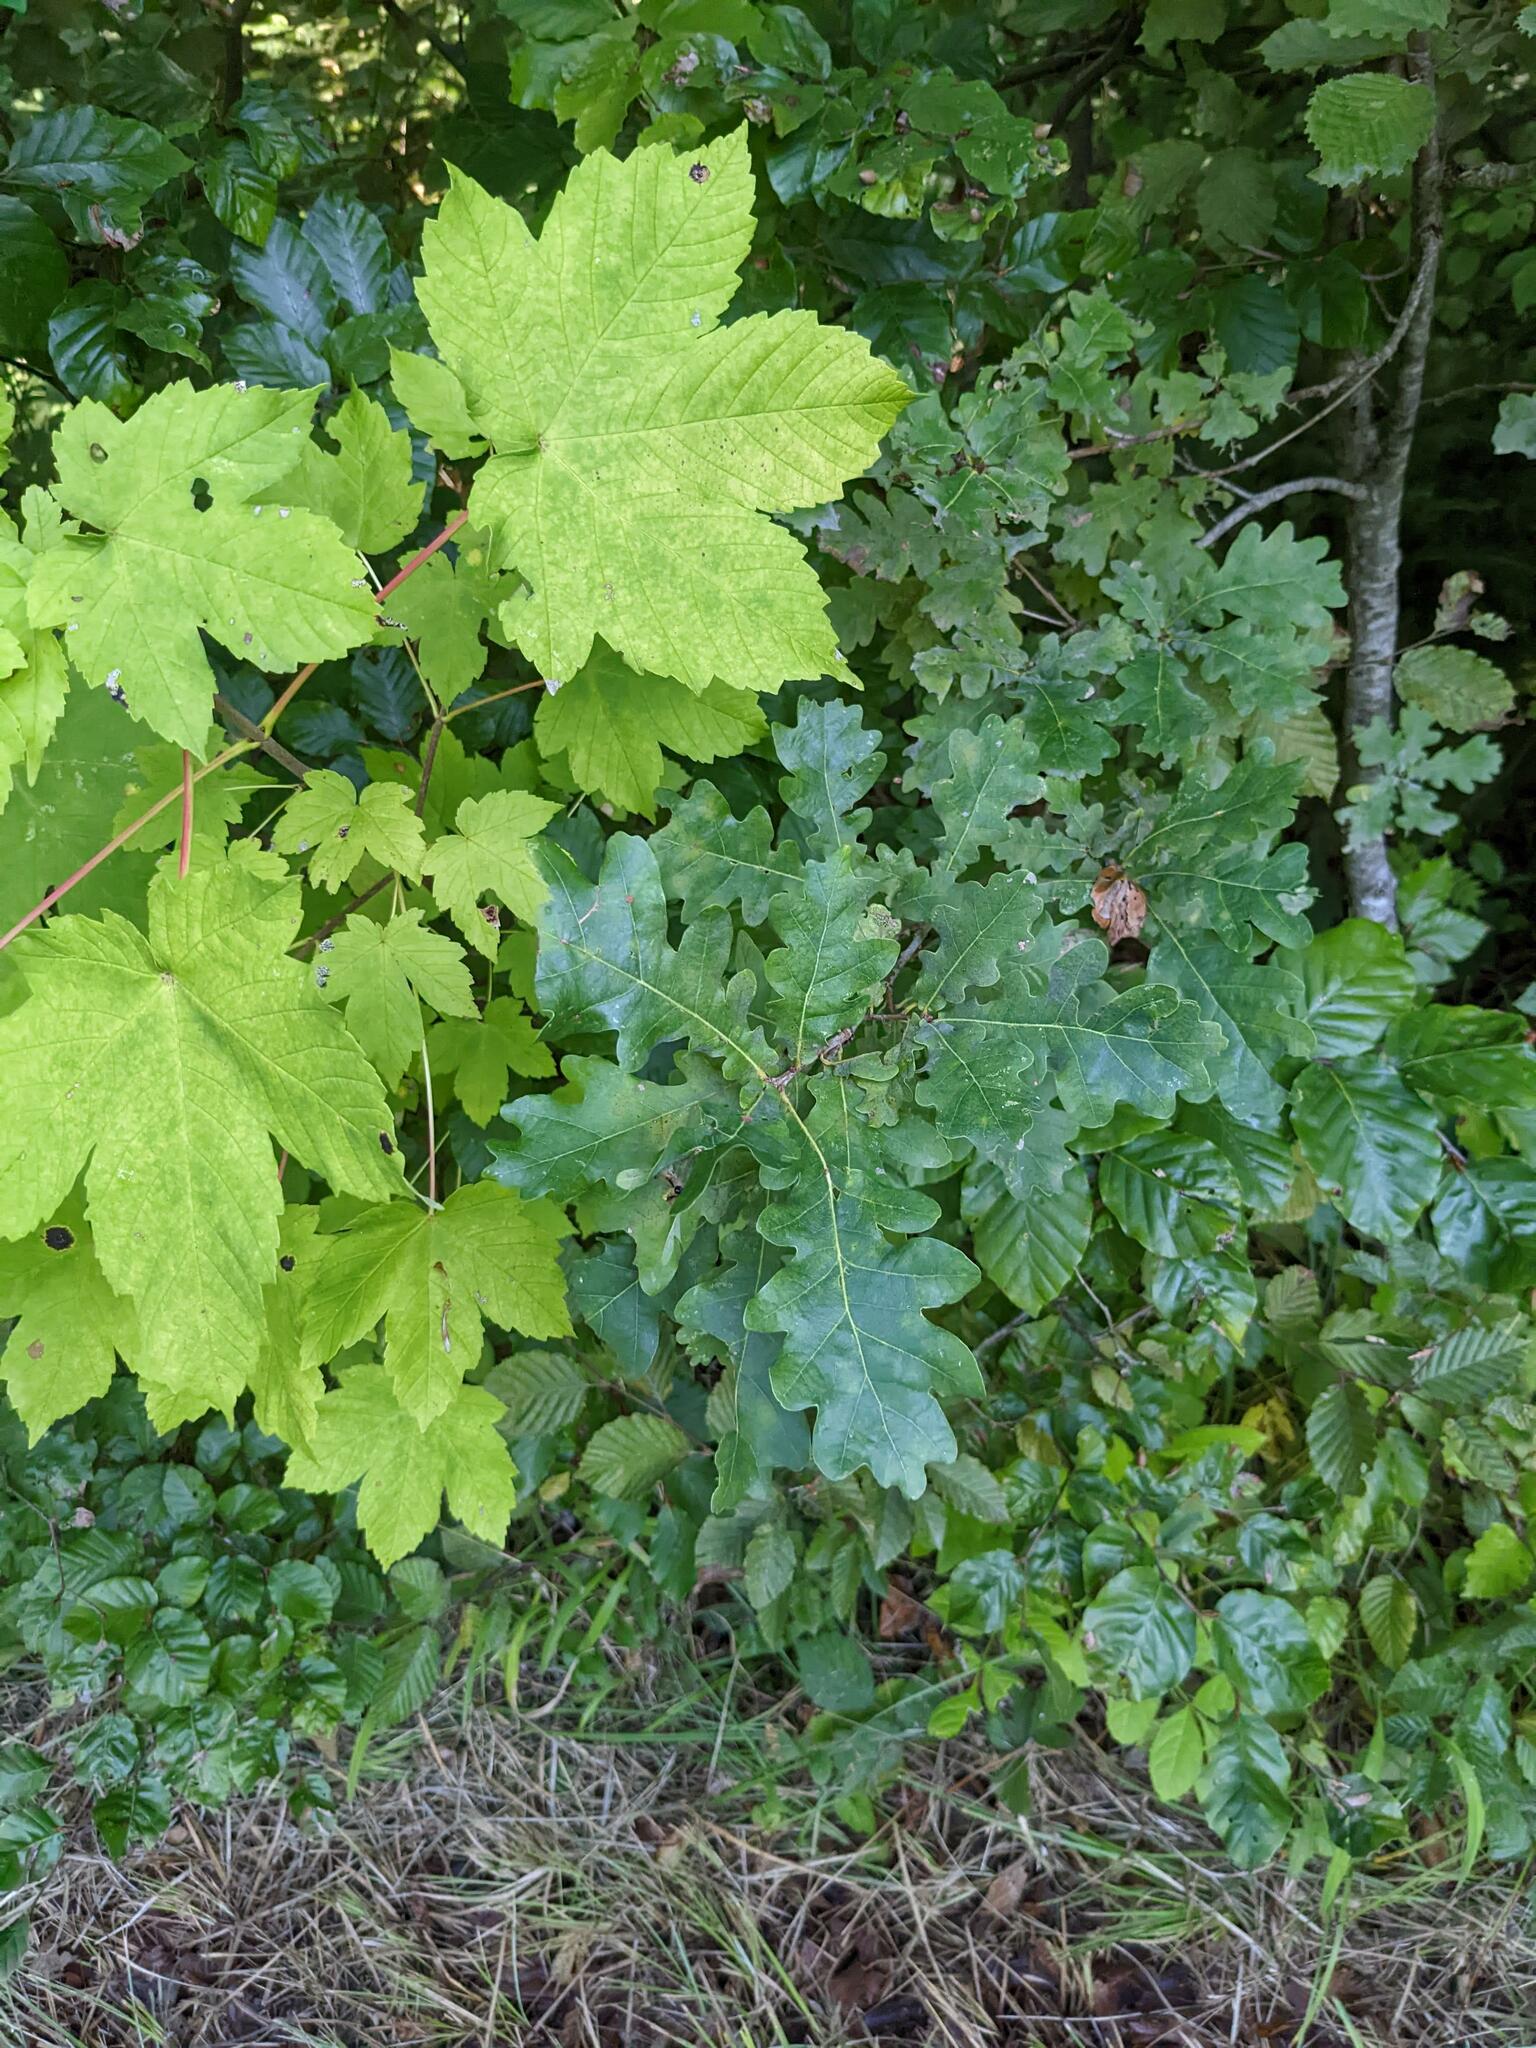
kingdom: Plantae
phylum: Tracheophyta
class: Magnoliopsida
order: Fagales
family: Fagaceae
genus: Quercus
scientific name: Quercus robur
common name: Pedunculate oak
